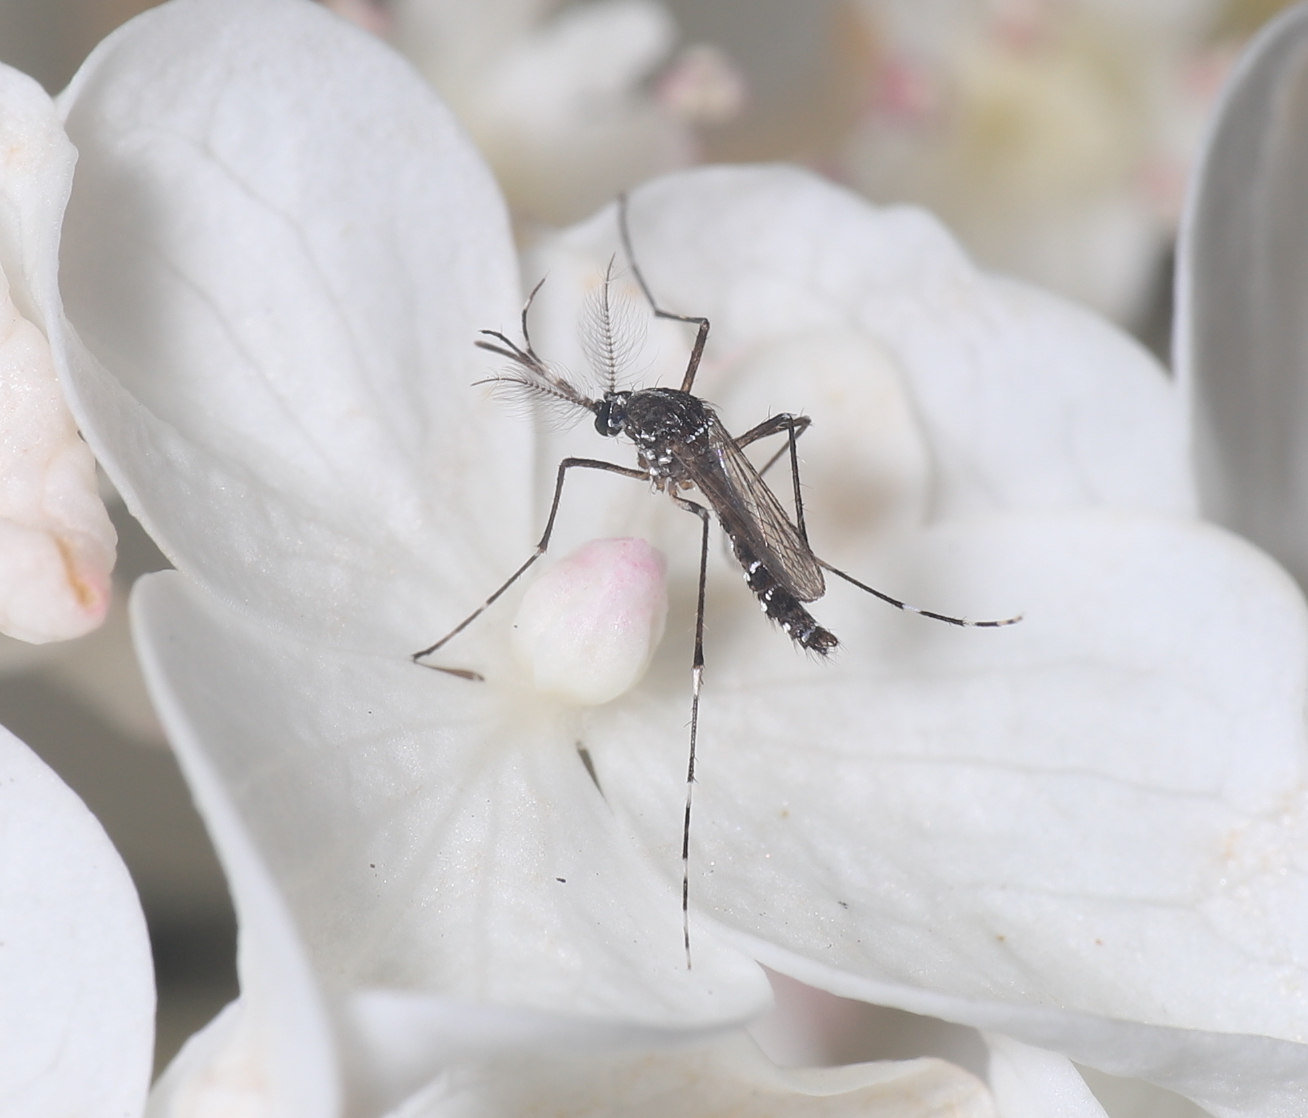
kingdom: Animalia
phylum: Arthropoda
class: Insecta
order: Diptera
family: Culicidae
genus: Aedes
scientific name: Aedes albopictus
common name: Tiger mosquito
